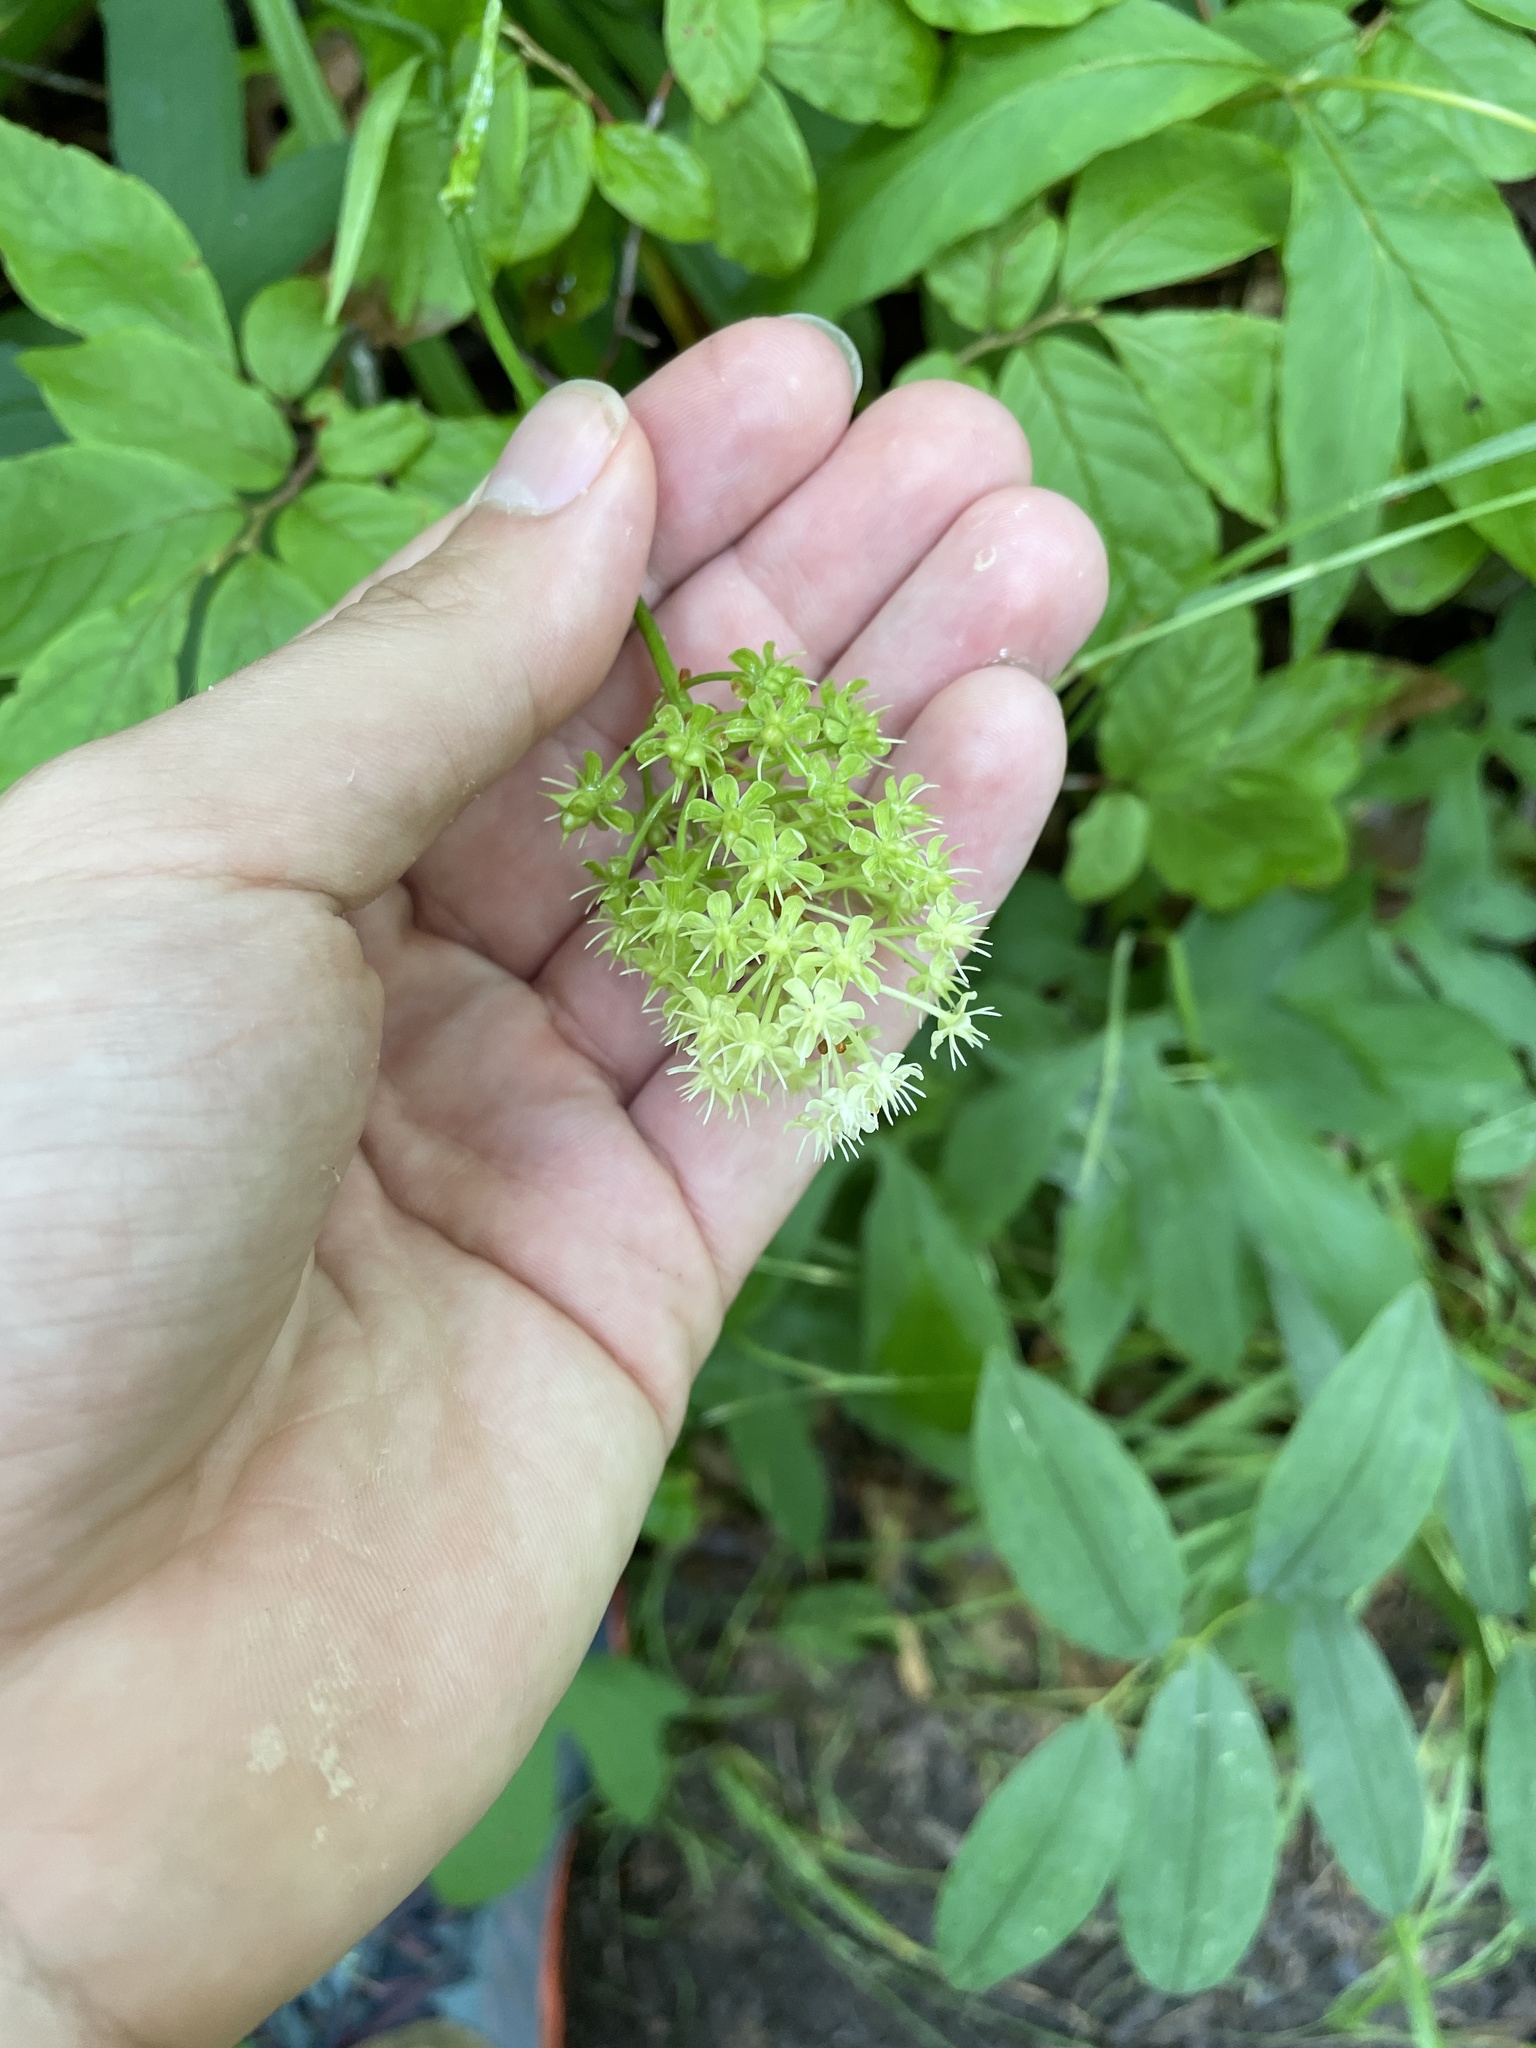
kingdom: Plantae
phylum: Tracheophyta
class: Liliopsida
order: Liliales
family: Melanthiaceae
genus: Amianthium
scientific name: Amianthium muscitoxicum
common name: Fly-poison
